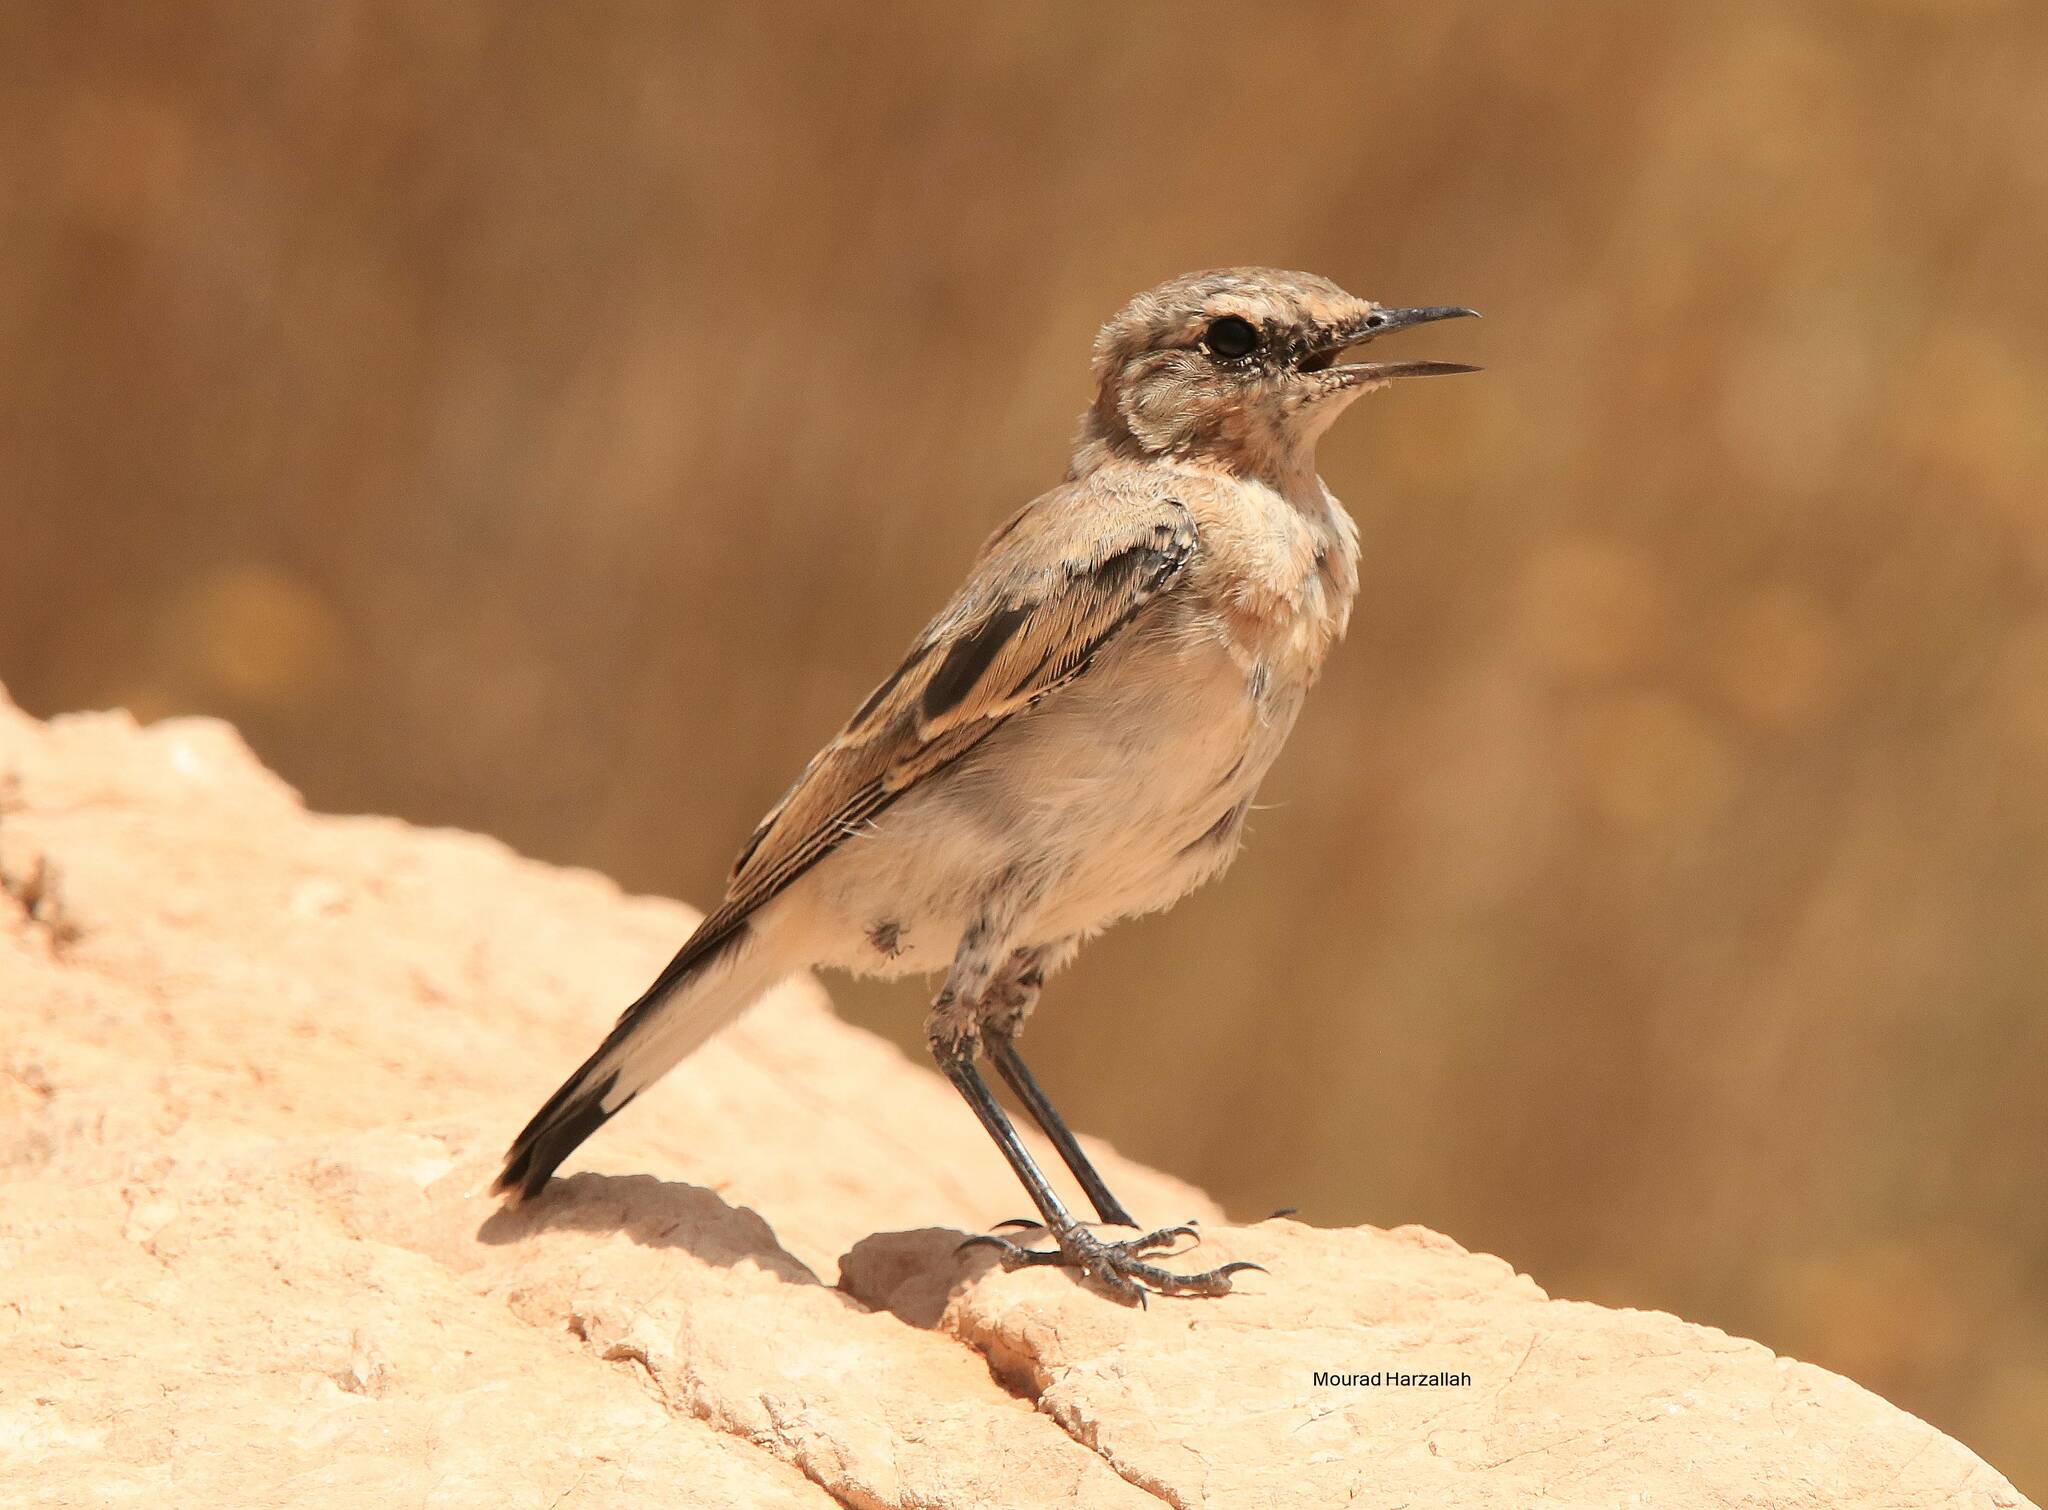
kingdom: Animalia
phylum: Chordata
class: Aves
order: Passeriformes
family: Muscicapidae
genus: Oenanthe
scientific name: Oenanthe oenanthe
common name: Northern wheatear
